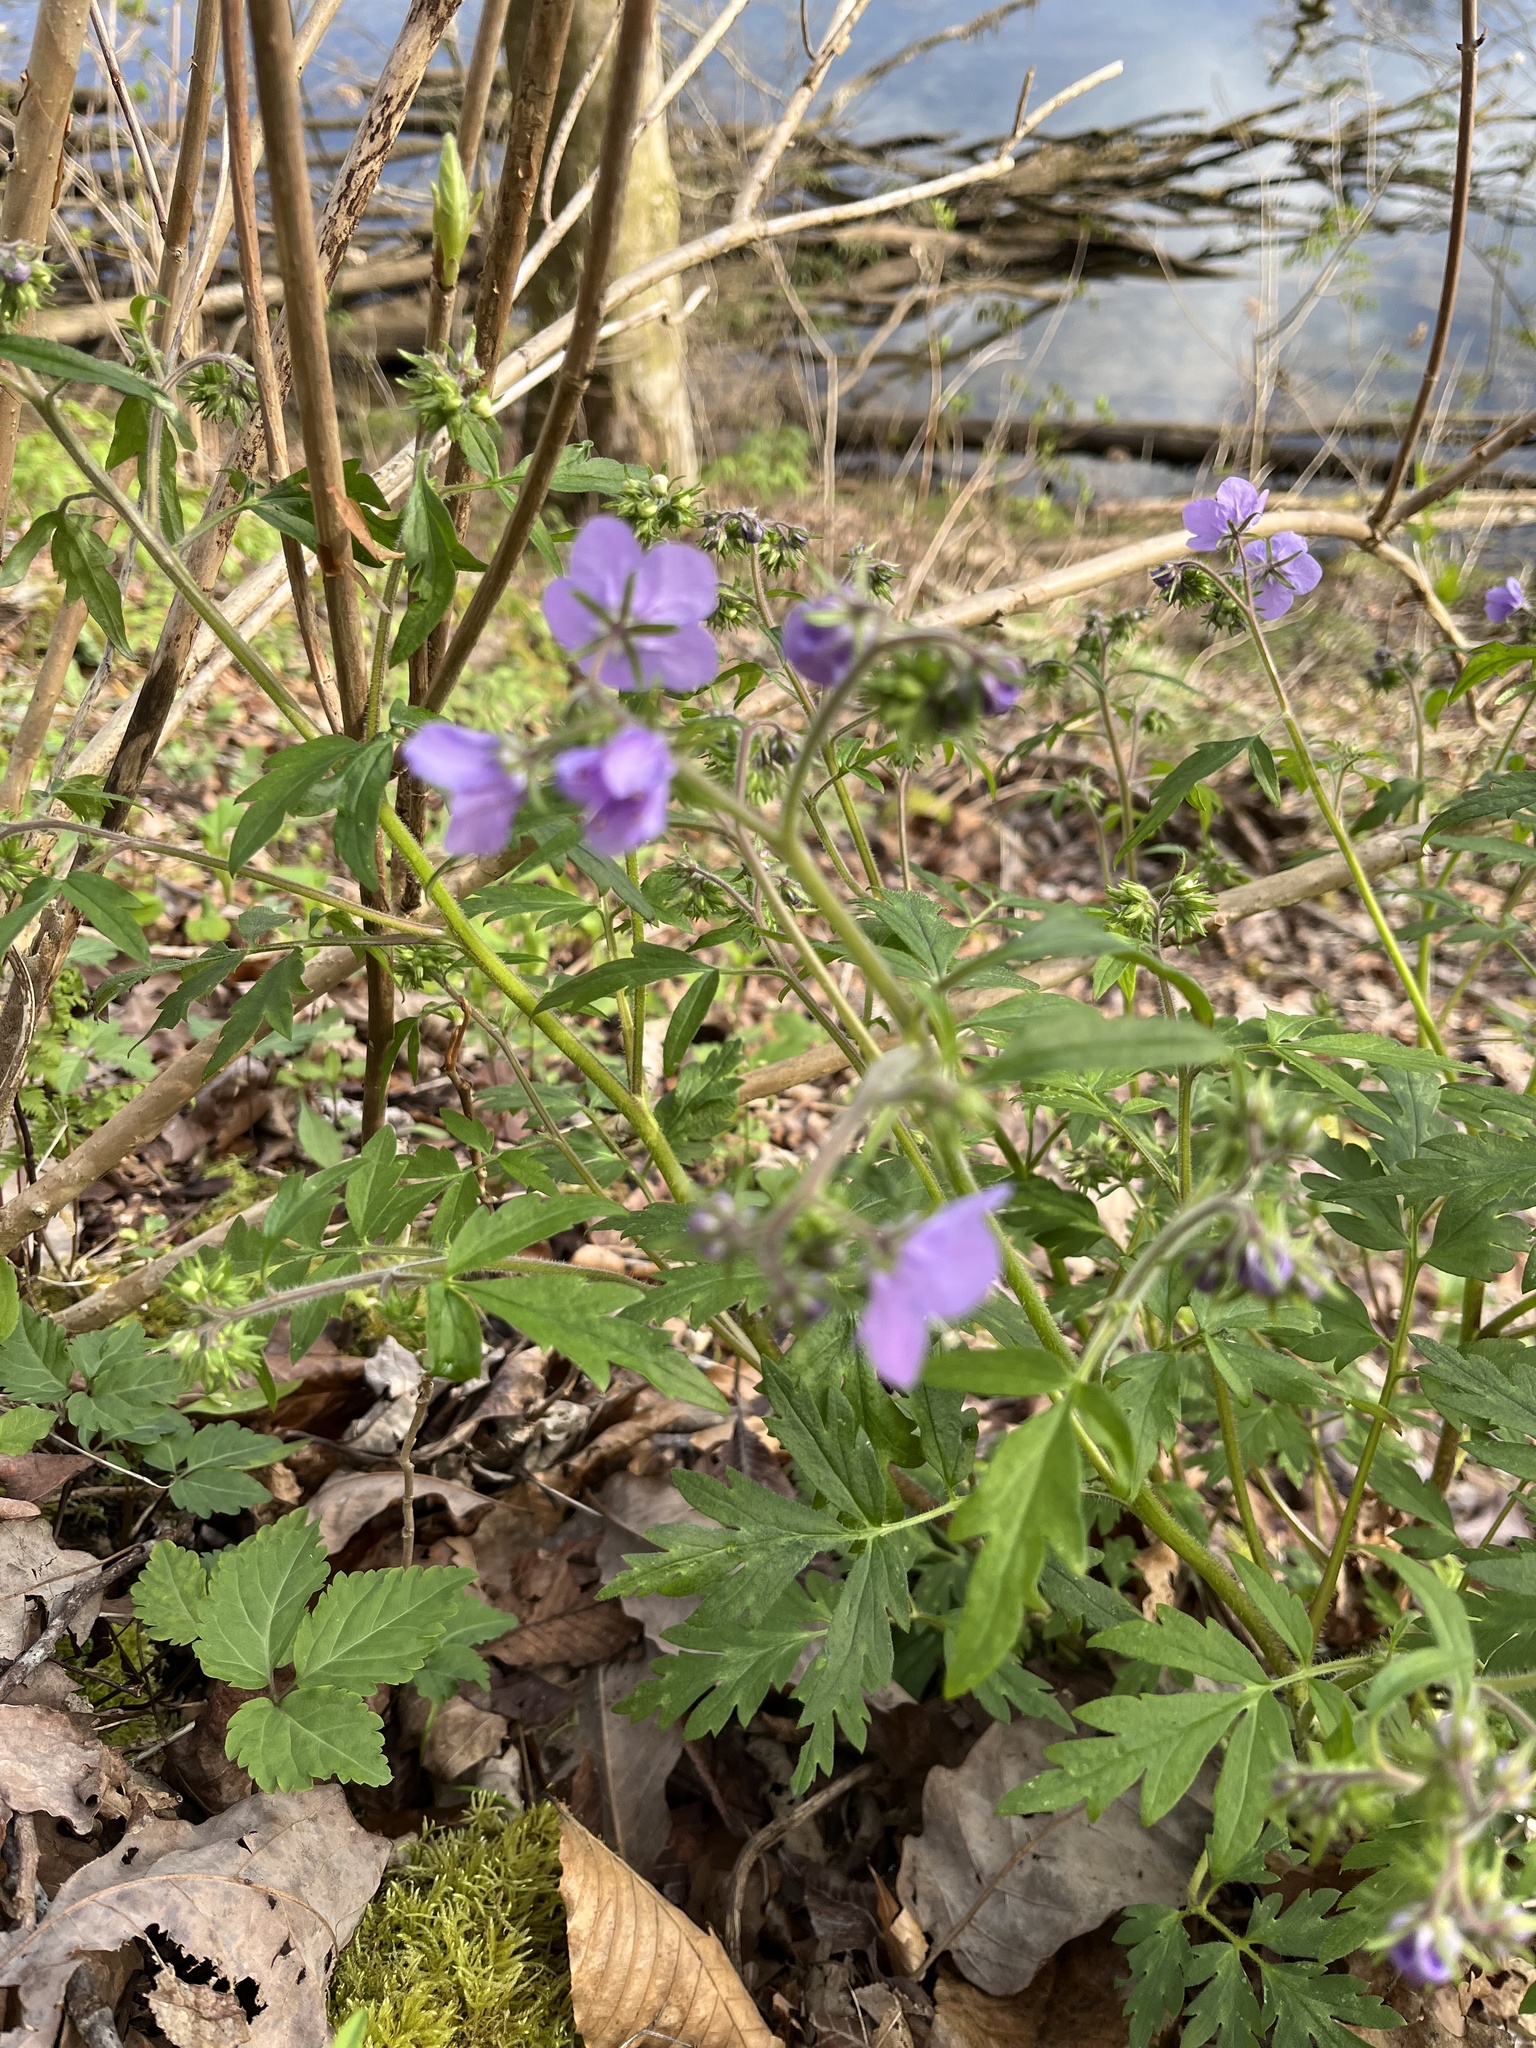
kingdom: Plantae
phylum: Tracheophyta
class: Magnoliopsida
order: Boraginales
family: Hydrophyllaceae
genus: Phacelia
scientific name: Phacelia bipinnatifida
